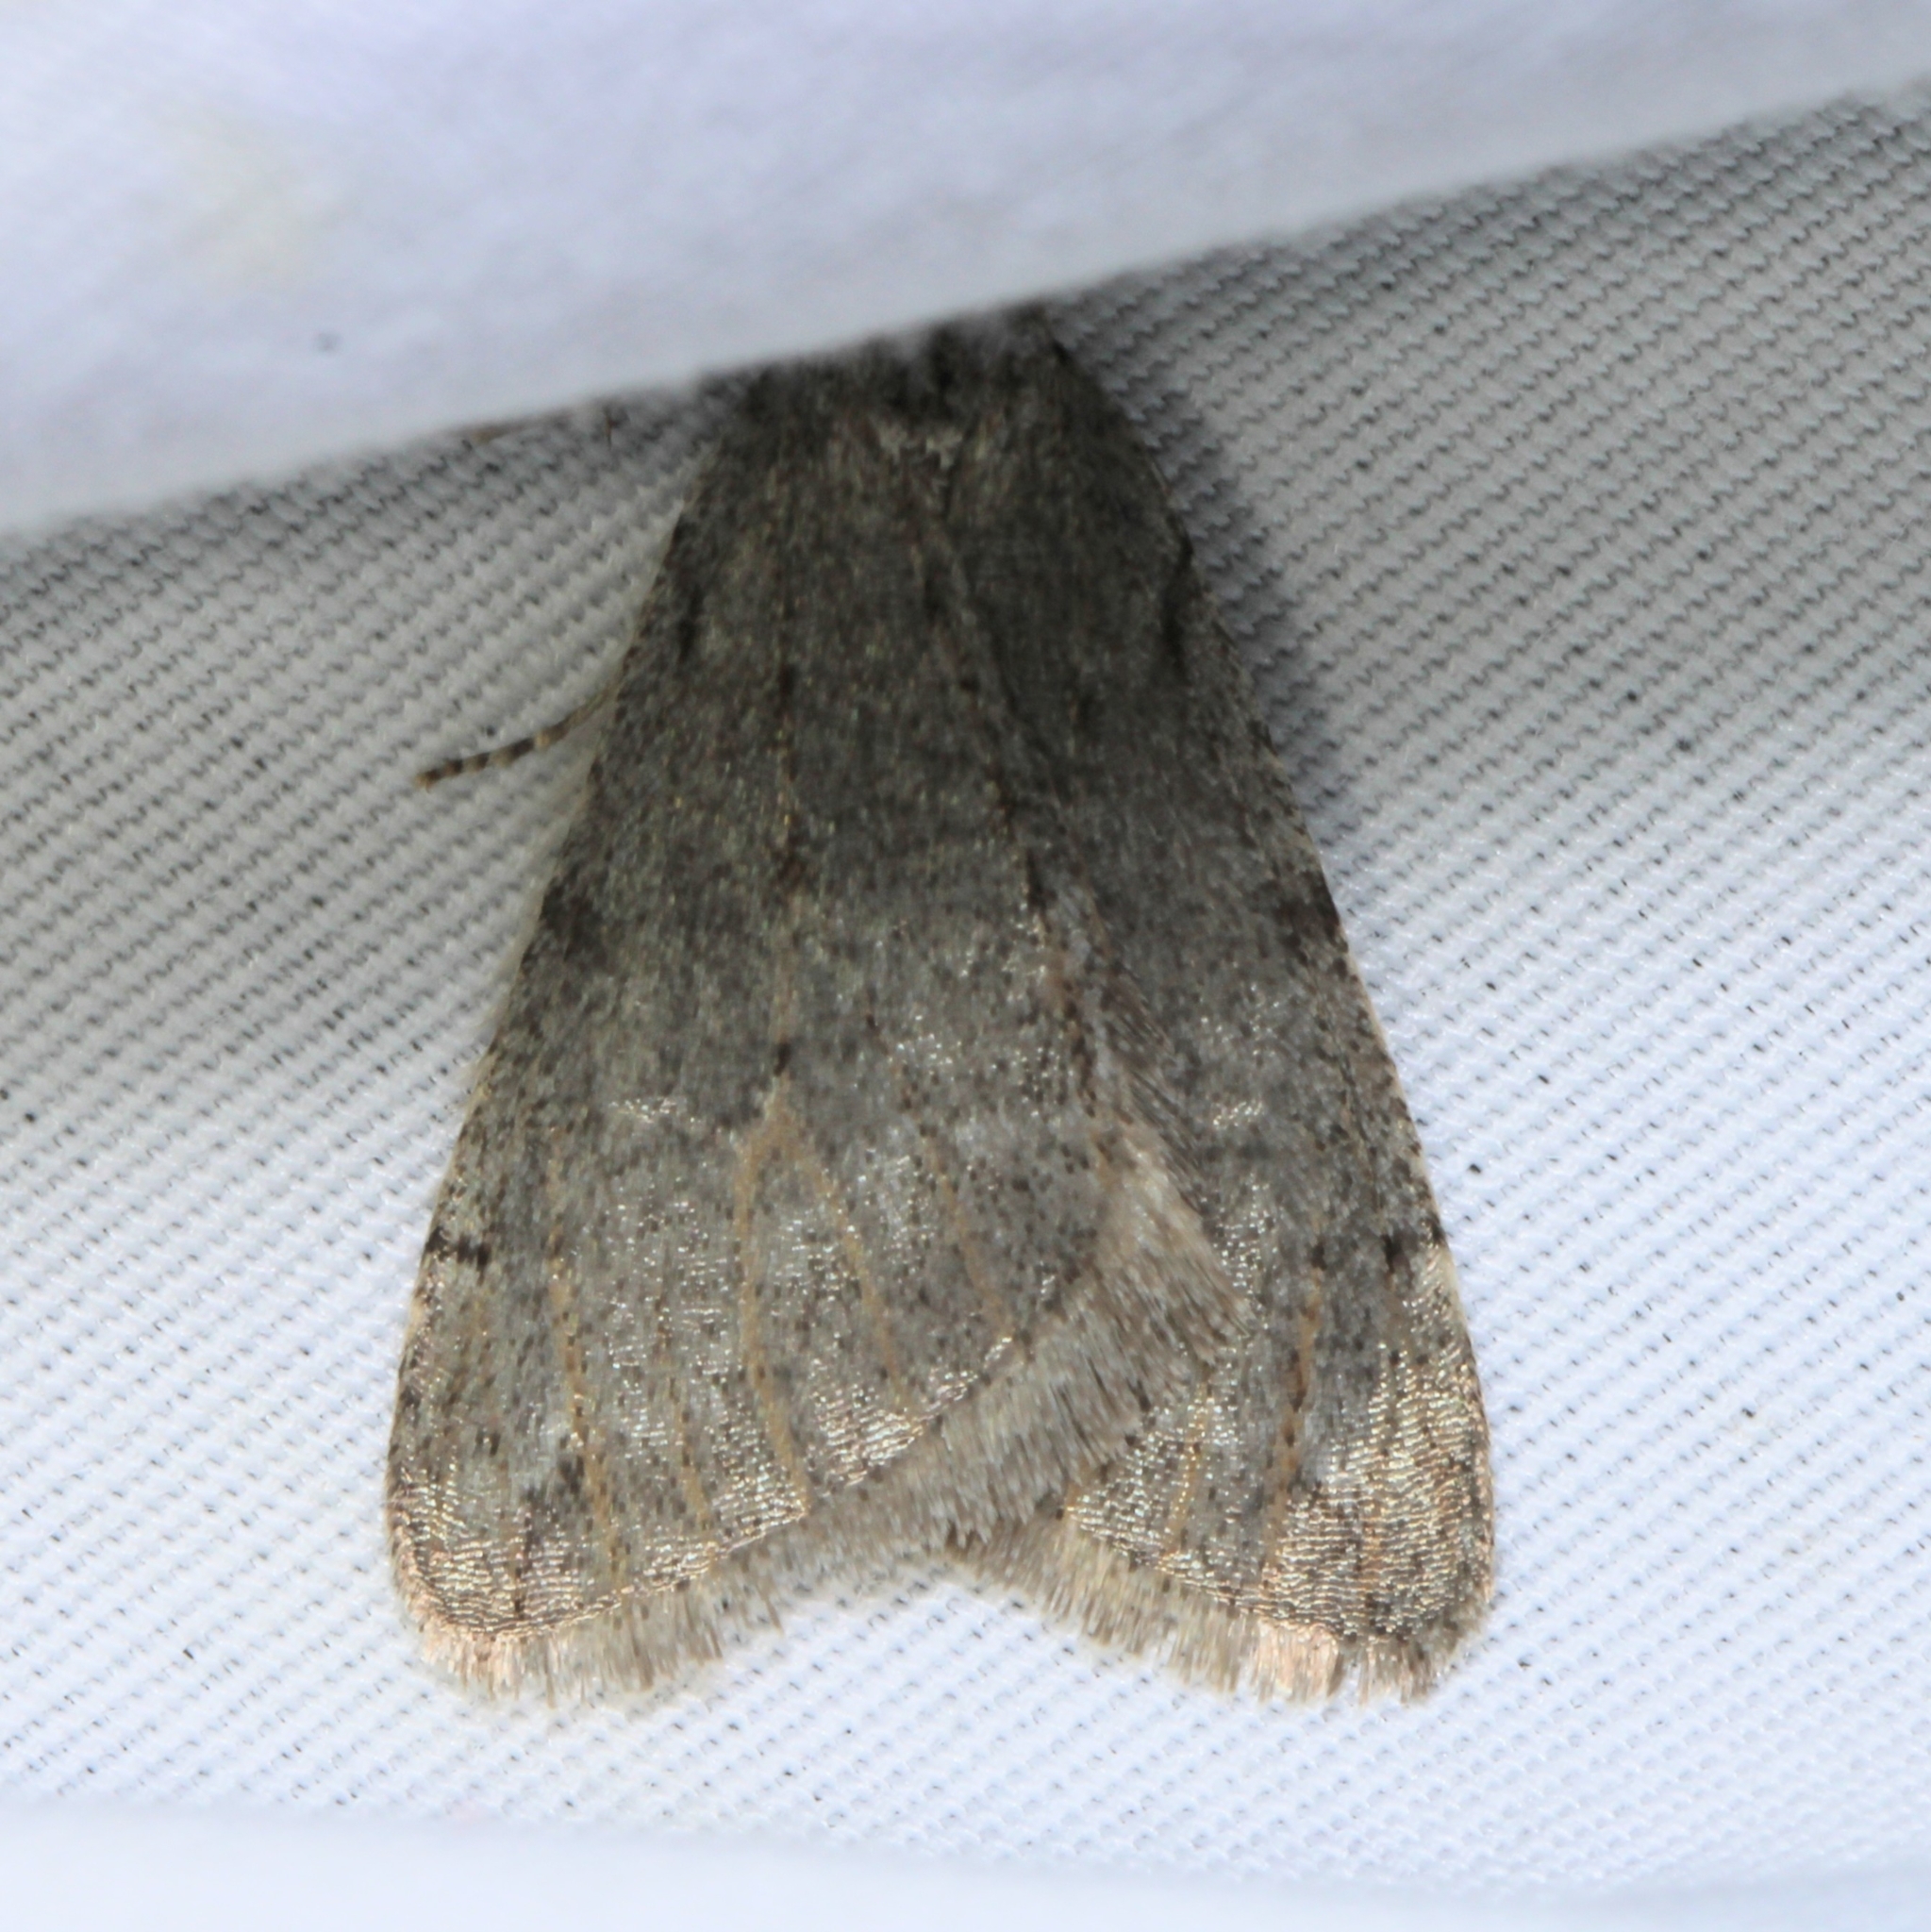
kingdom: Animalia
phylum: Arthropoda
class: Insecta
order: Lepidoptera
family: Geometridae
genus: Paleacrita
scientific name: Paleacrita vernata
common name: Spring cankerworm
